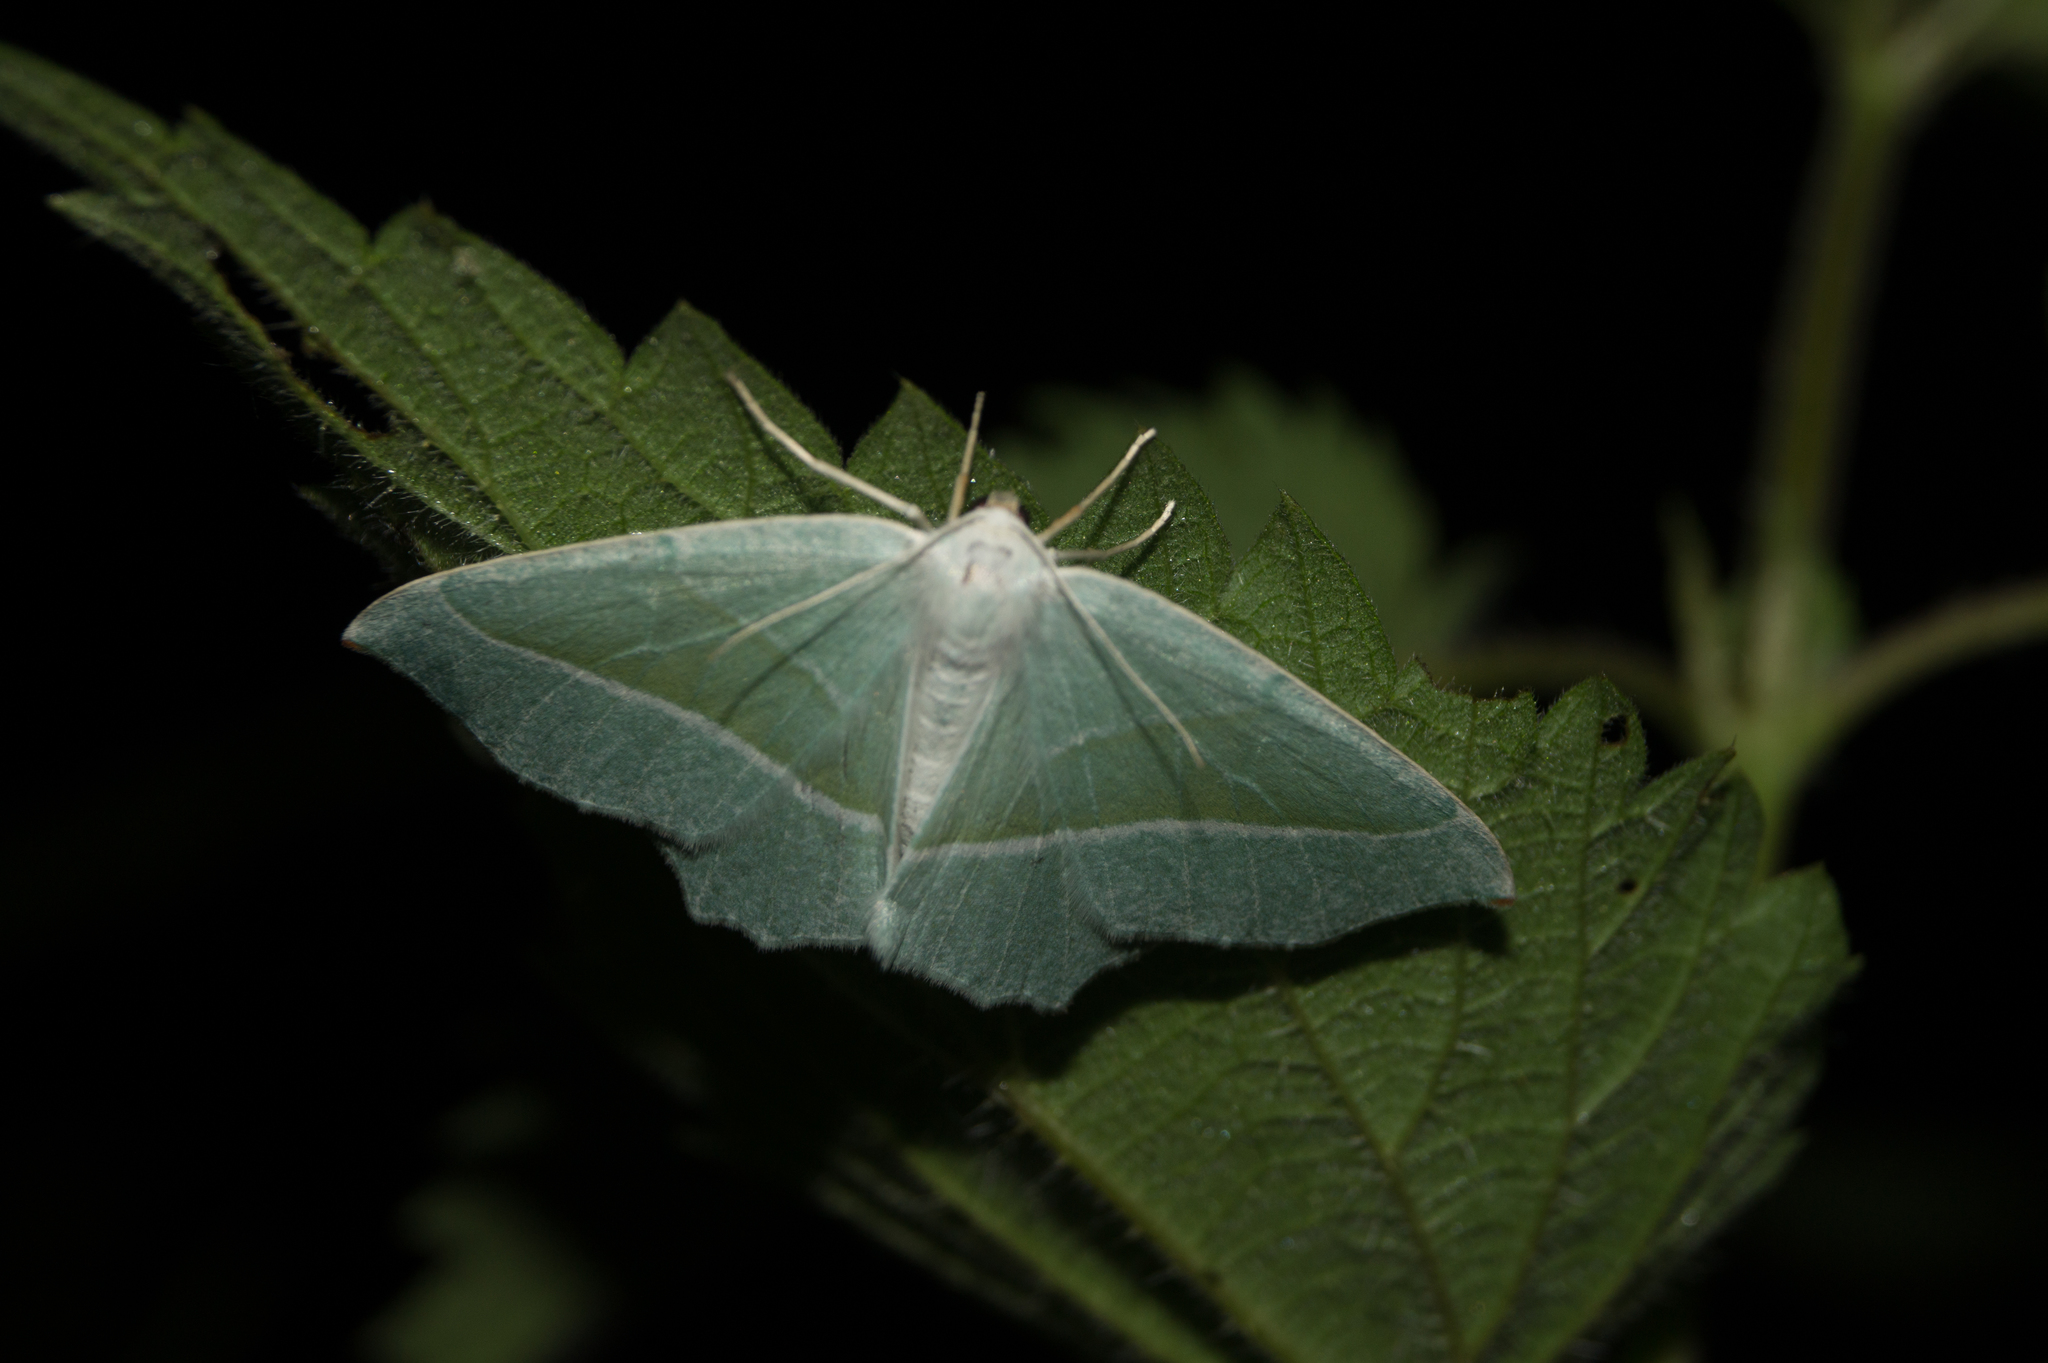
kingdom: Animalia
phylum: Arthropoda
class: Insecta
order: Lepidoptera
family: Geometridae
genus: Campaea
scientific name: Campaea margaritaria
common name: Light emerald
